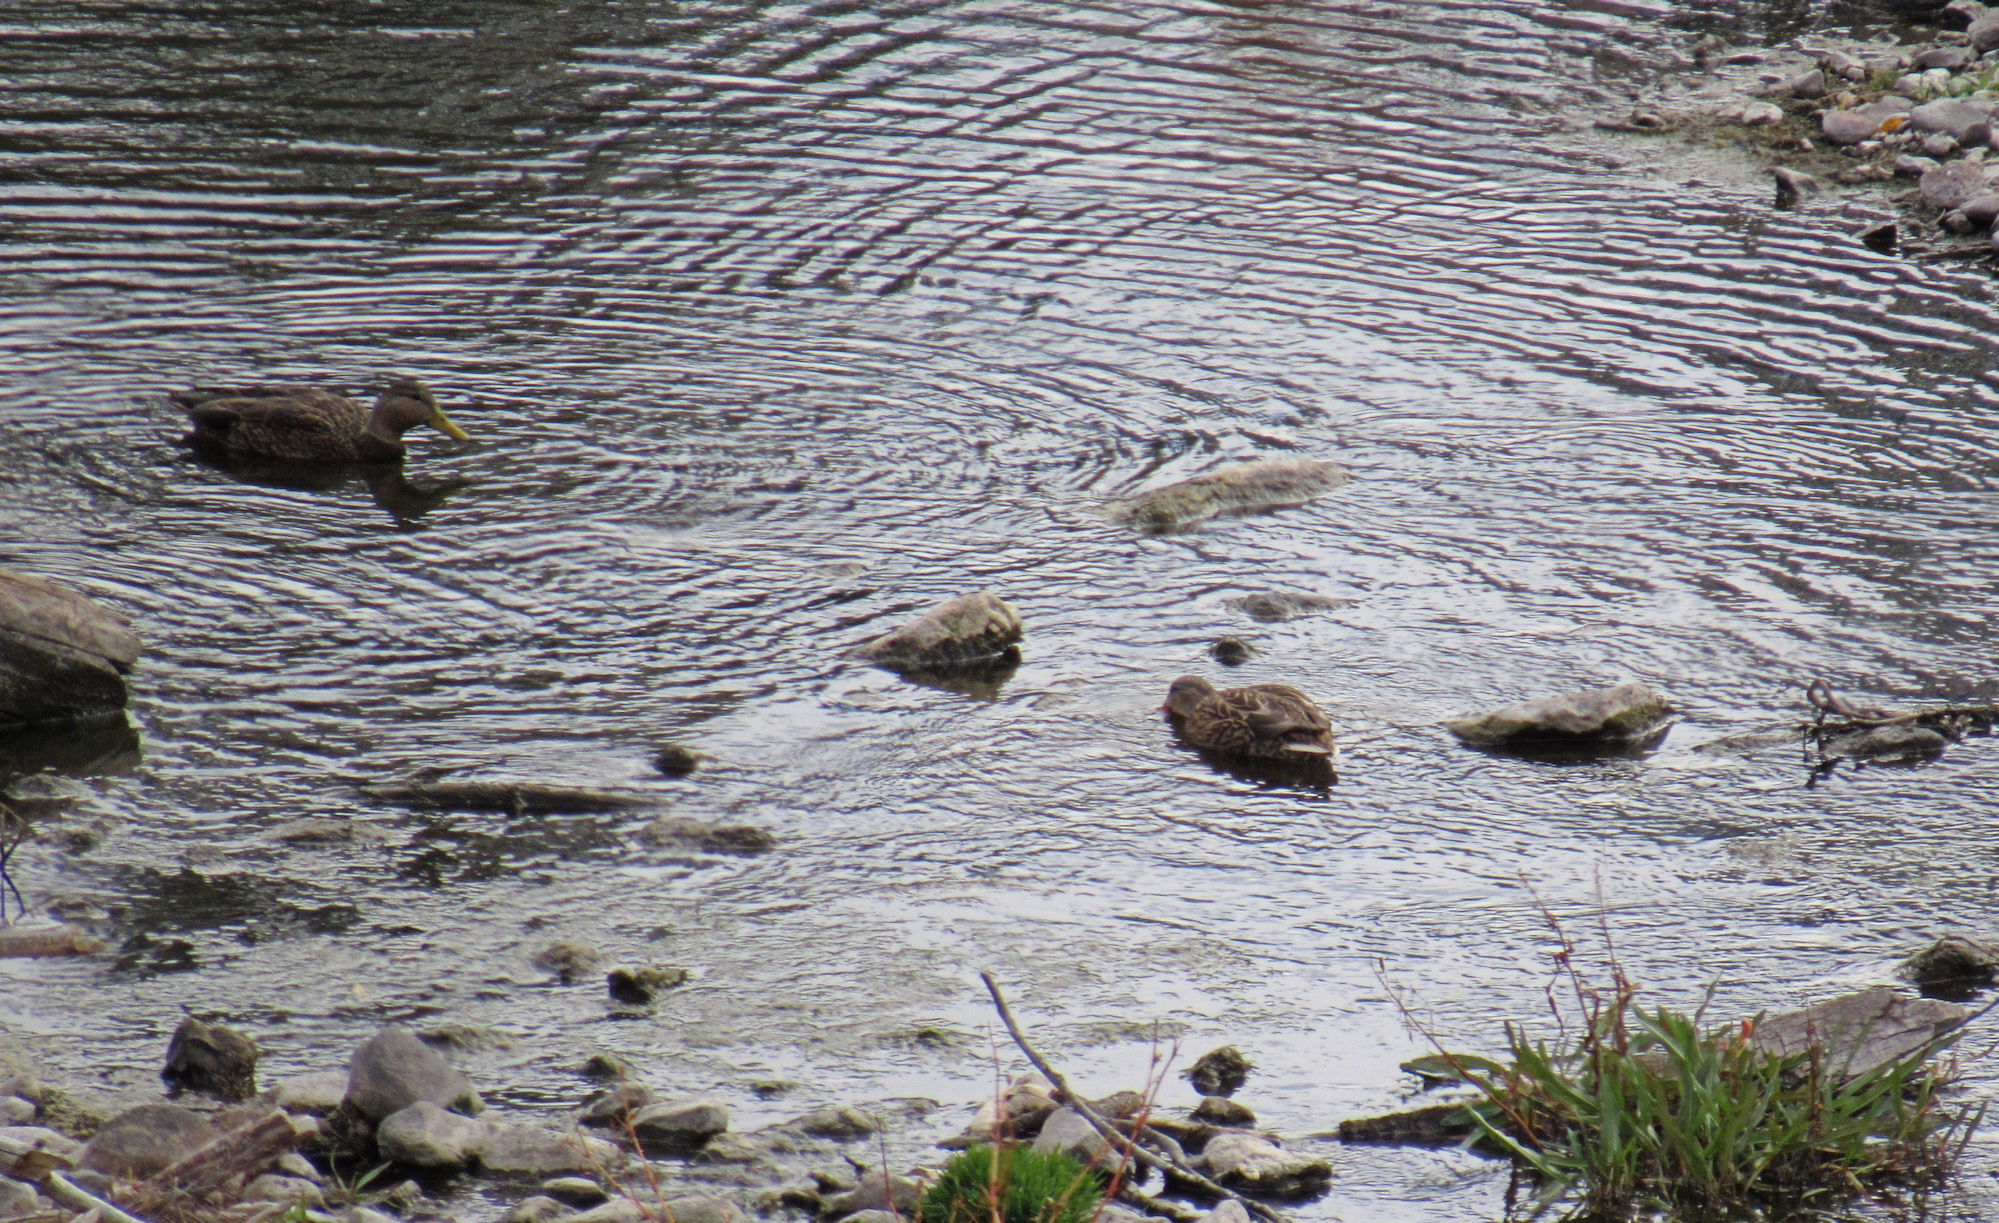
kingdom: Animalia
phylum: Chordata
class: Aves
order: Anseriformes
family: Anatidae
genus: Anas
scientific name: Anas diazi
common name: Mexican duck
